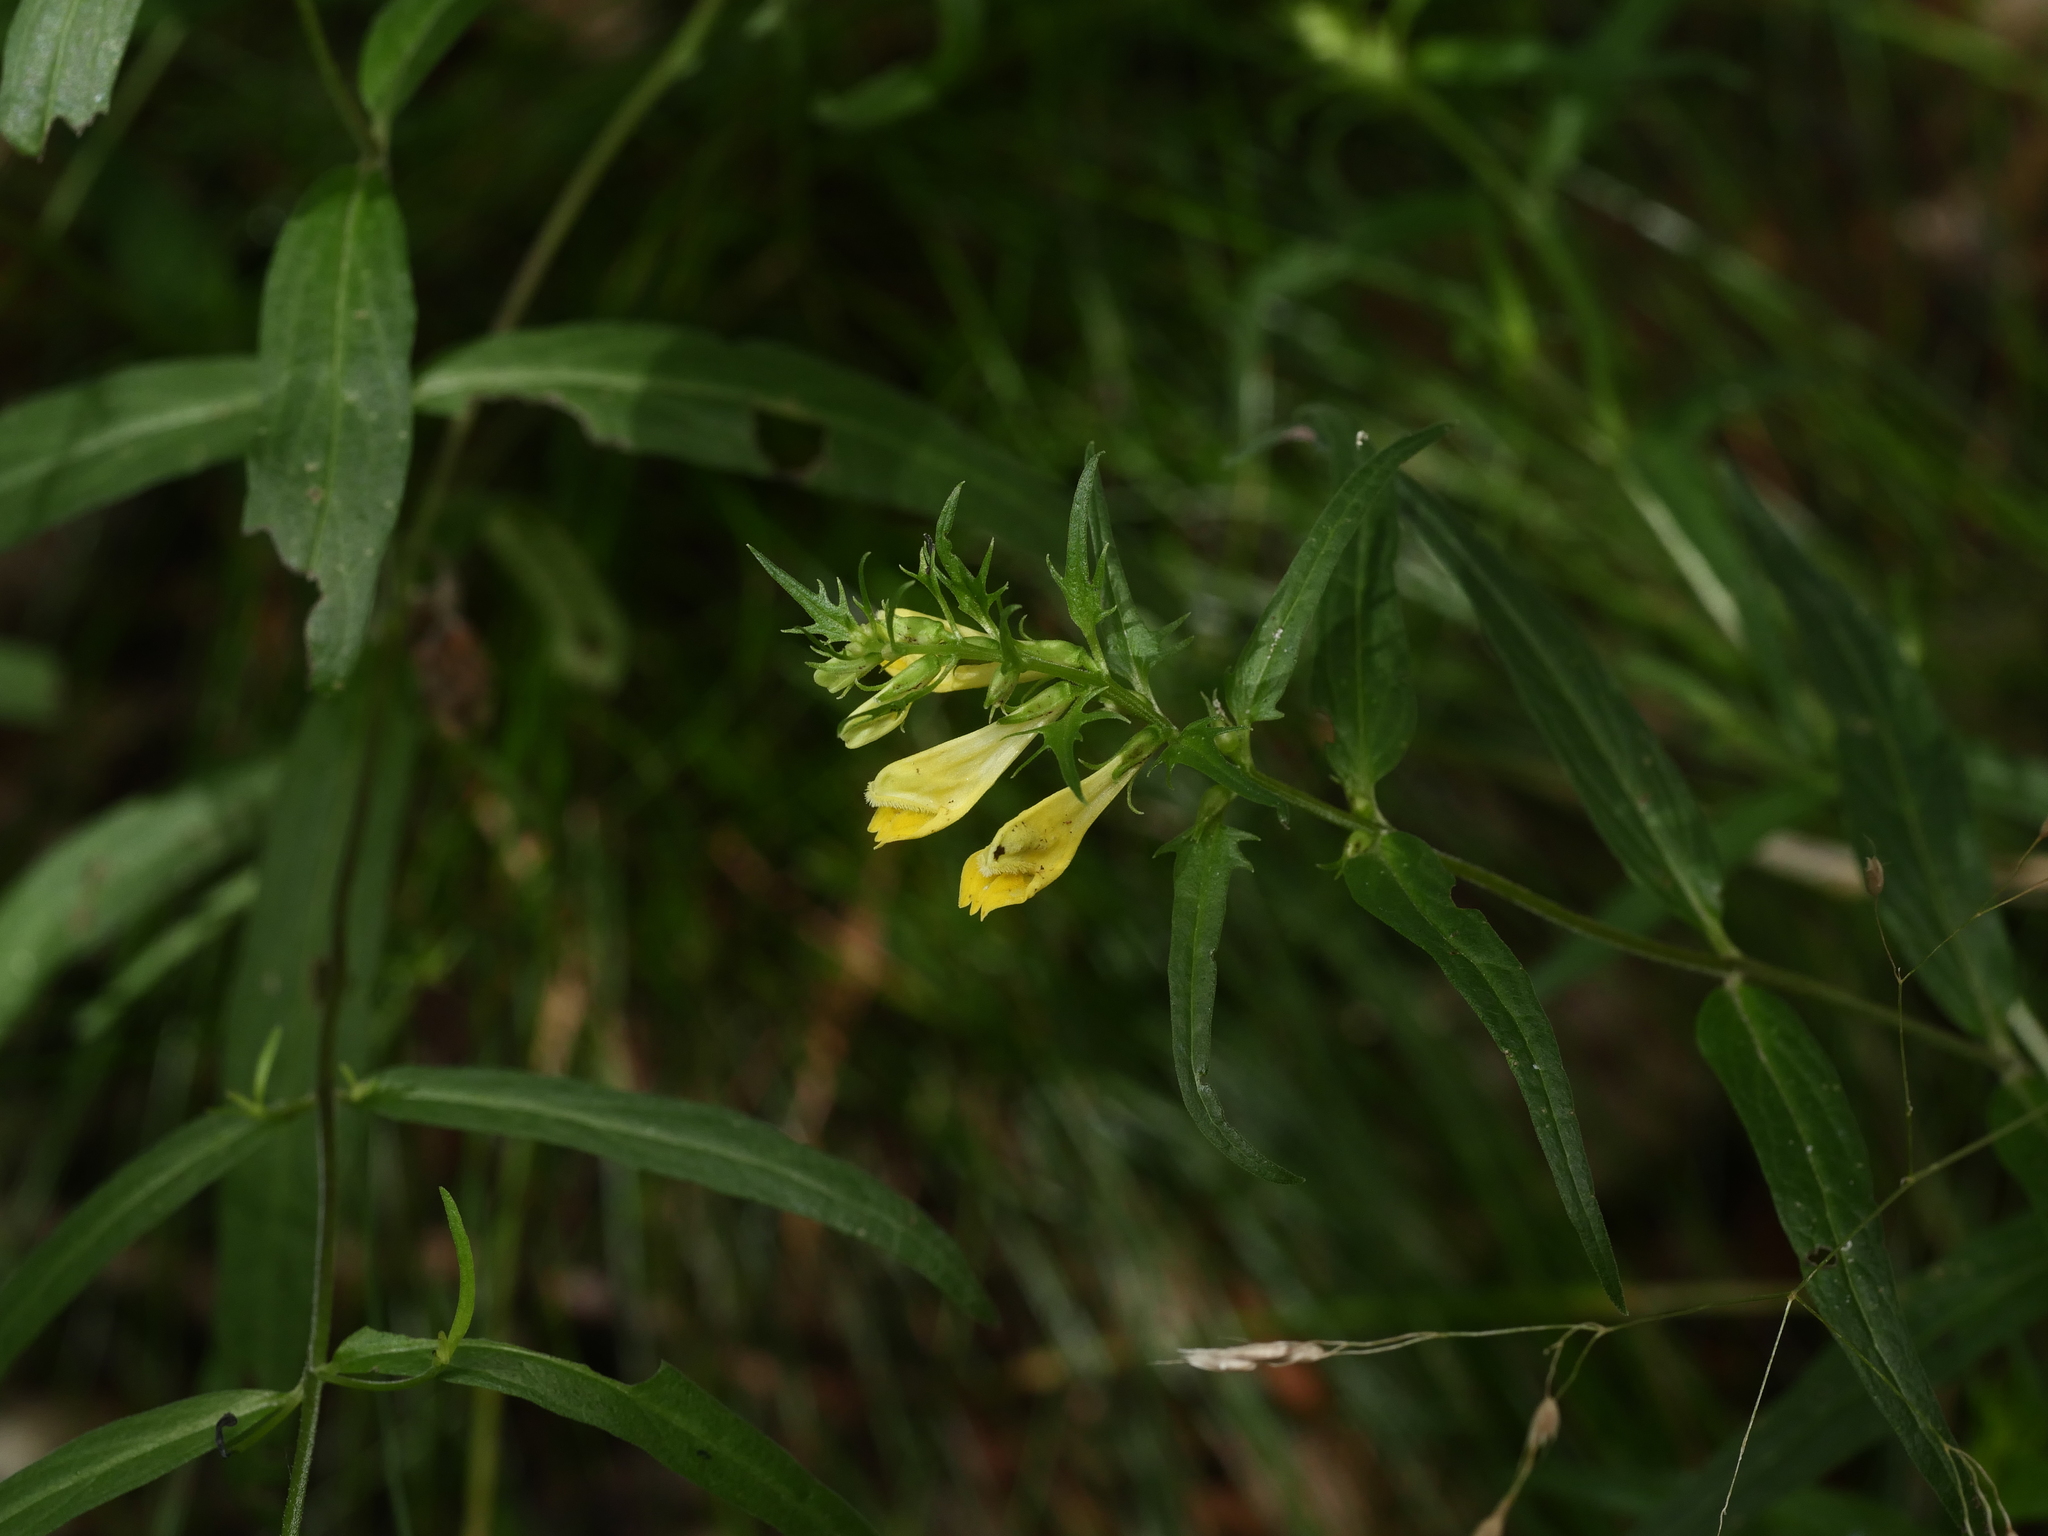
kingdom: Plantae
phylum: Tracheophyta
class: Magnoliopsida
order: Lamiales
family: Orobanchaceae
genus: Melampyrum
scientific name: Melampyrum pratense
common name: Common cow-wheat
